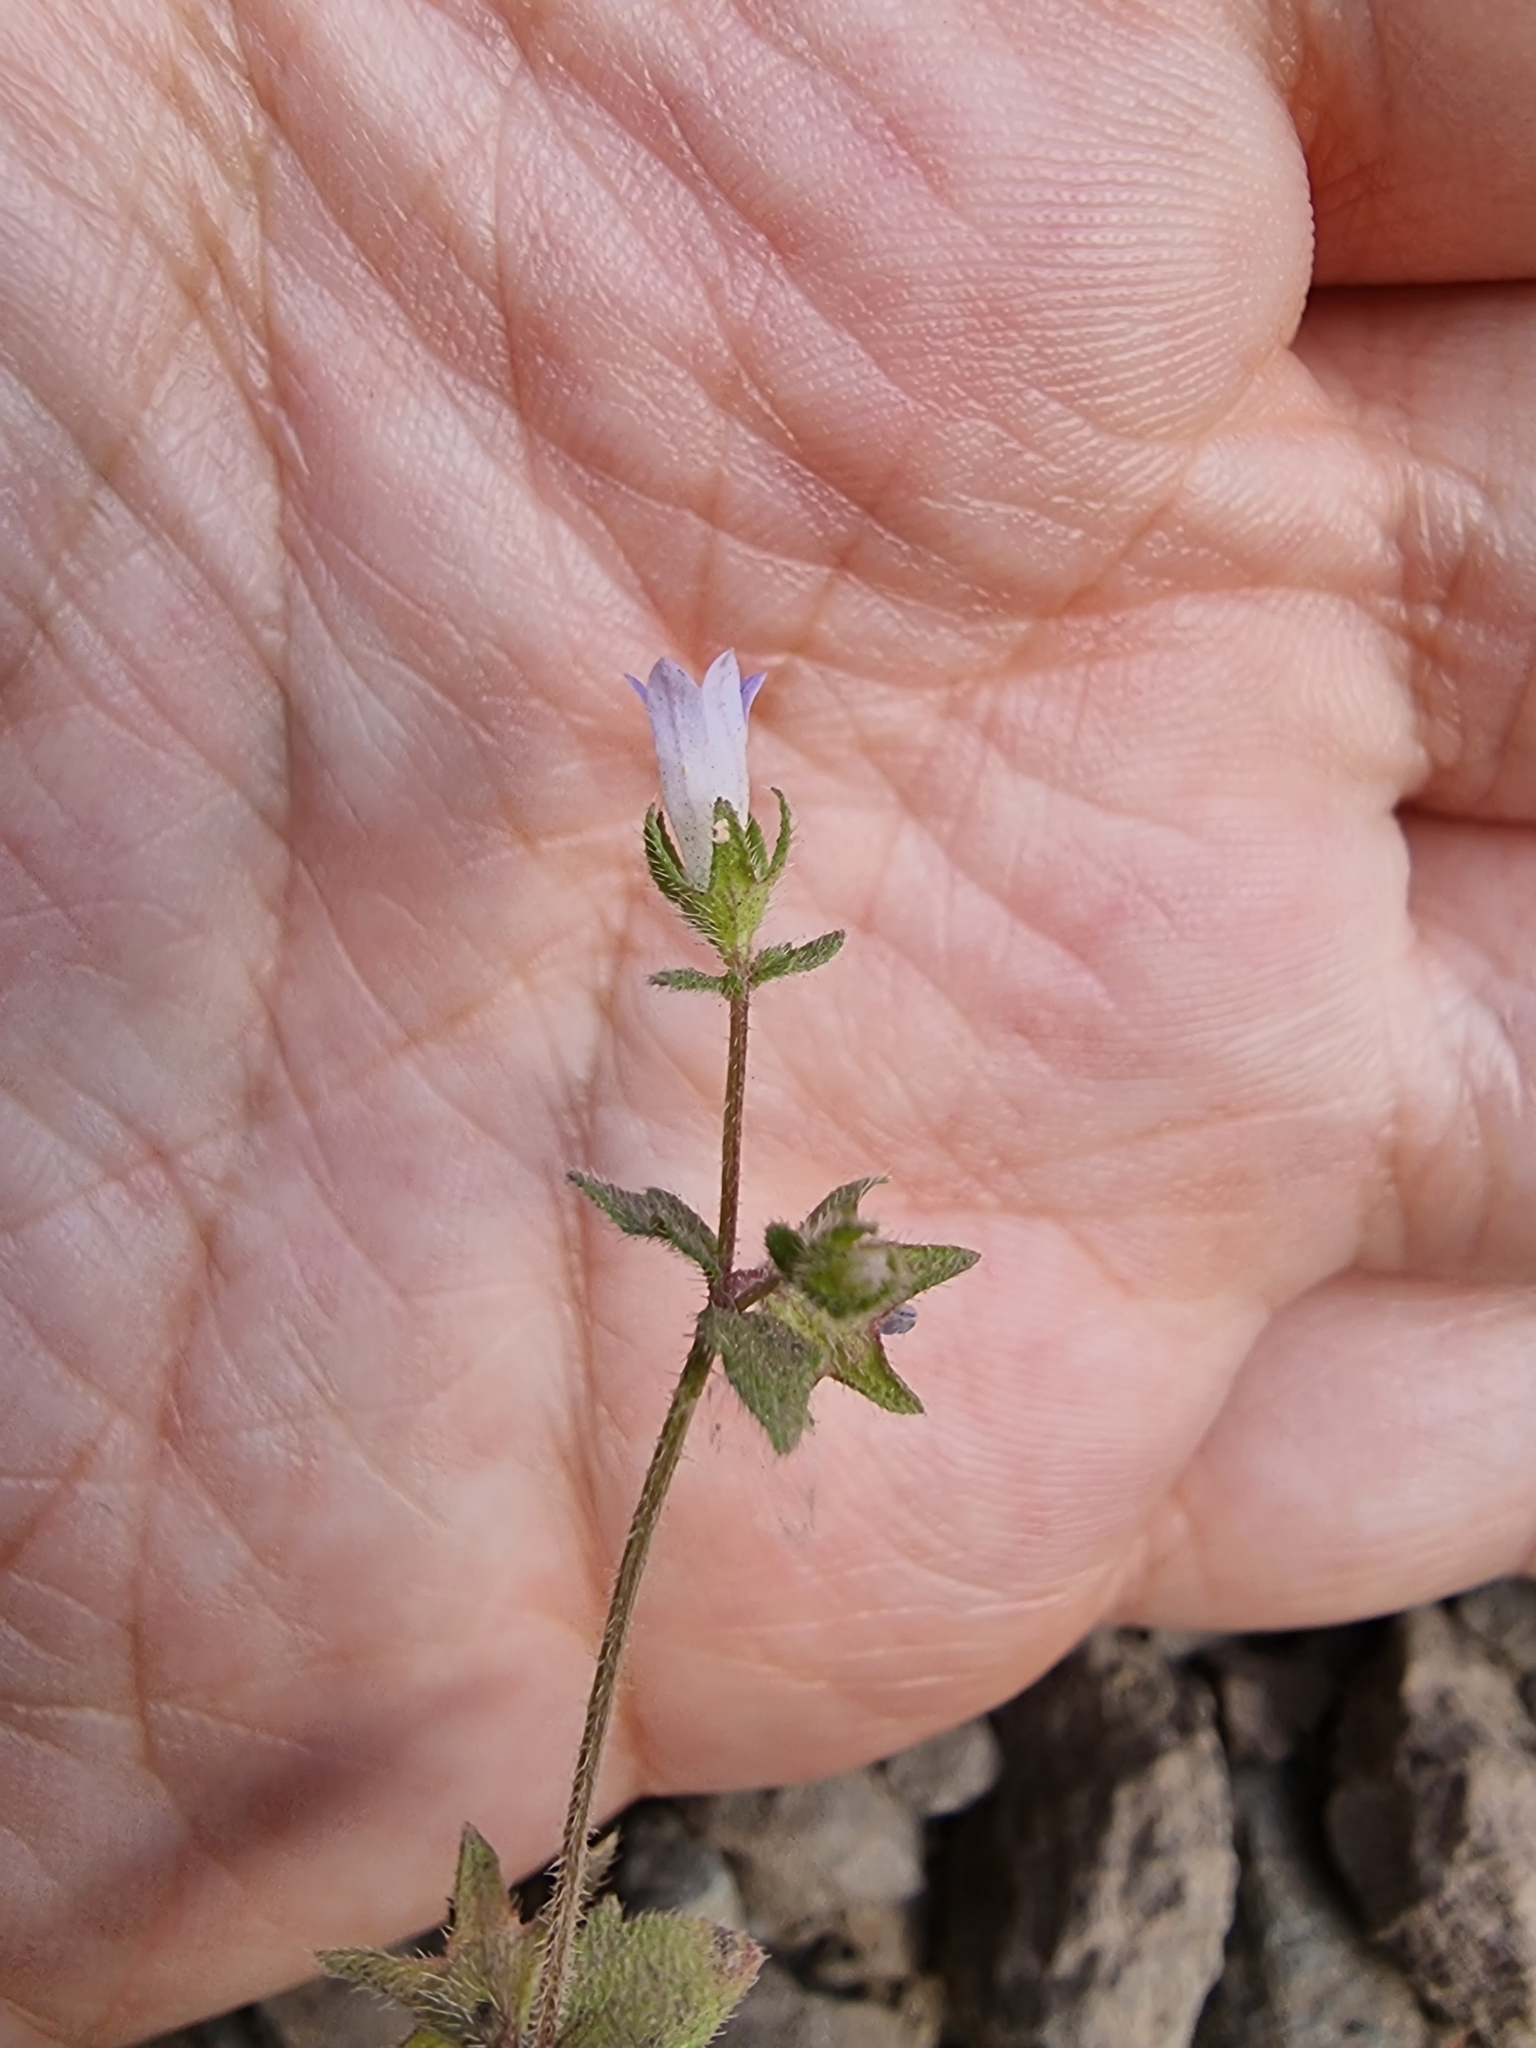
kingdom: Plantae
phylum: Tracheophyta
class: Magnoliopsida
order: Asterales
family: Campanulaceae
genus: Campanula
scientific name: Campanula erinus
